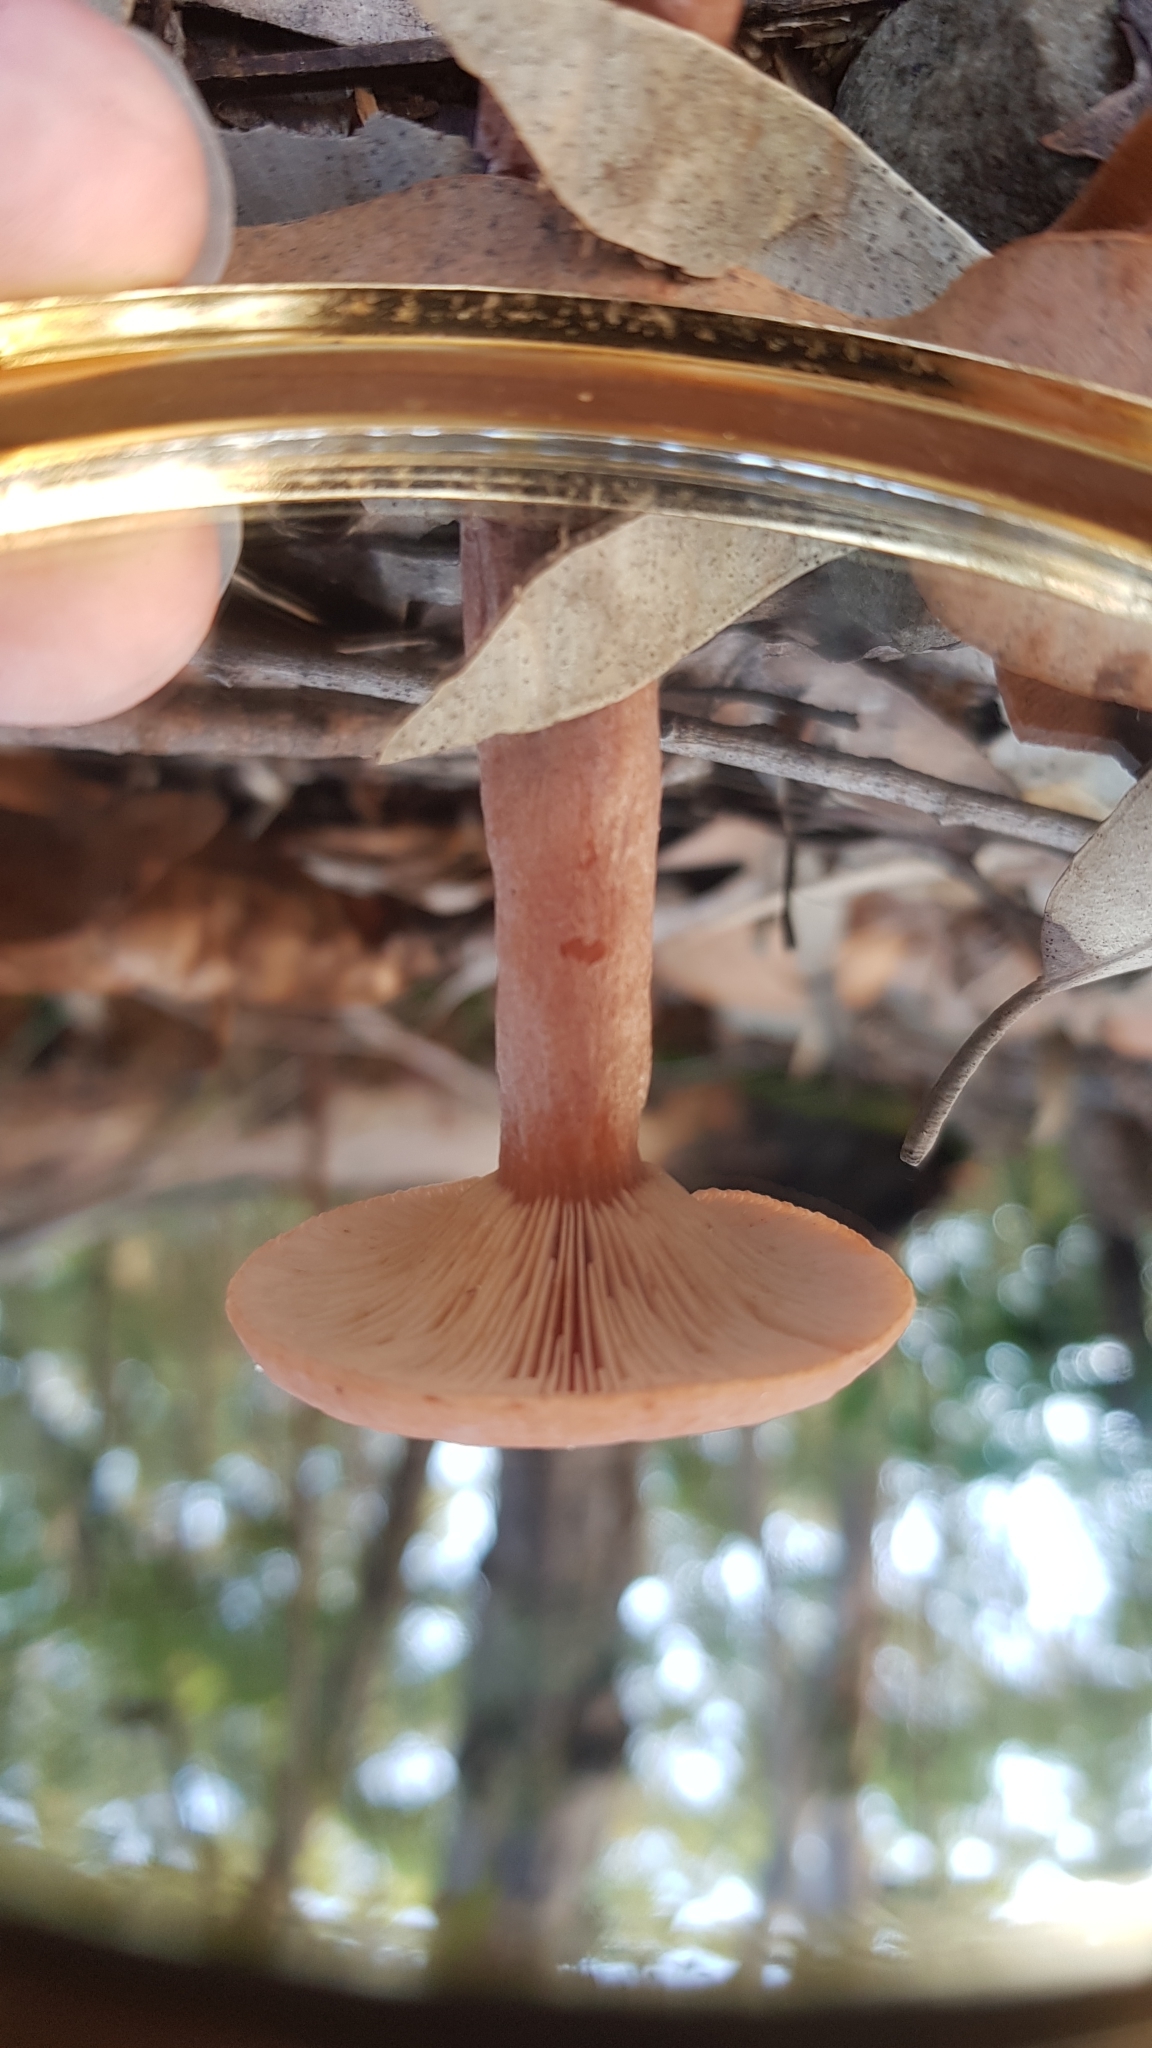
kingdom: Fungi
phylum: Basidiomycota
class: Agaricomycetes
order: Russulales
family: Russulaceae
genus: Lactarius
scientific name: Lactarius eucalypti
